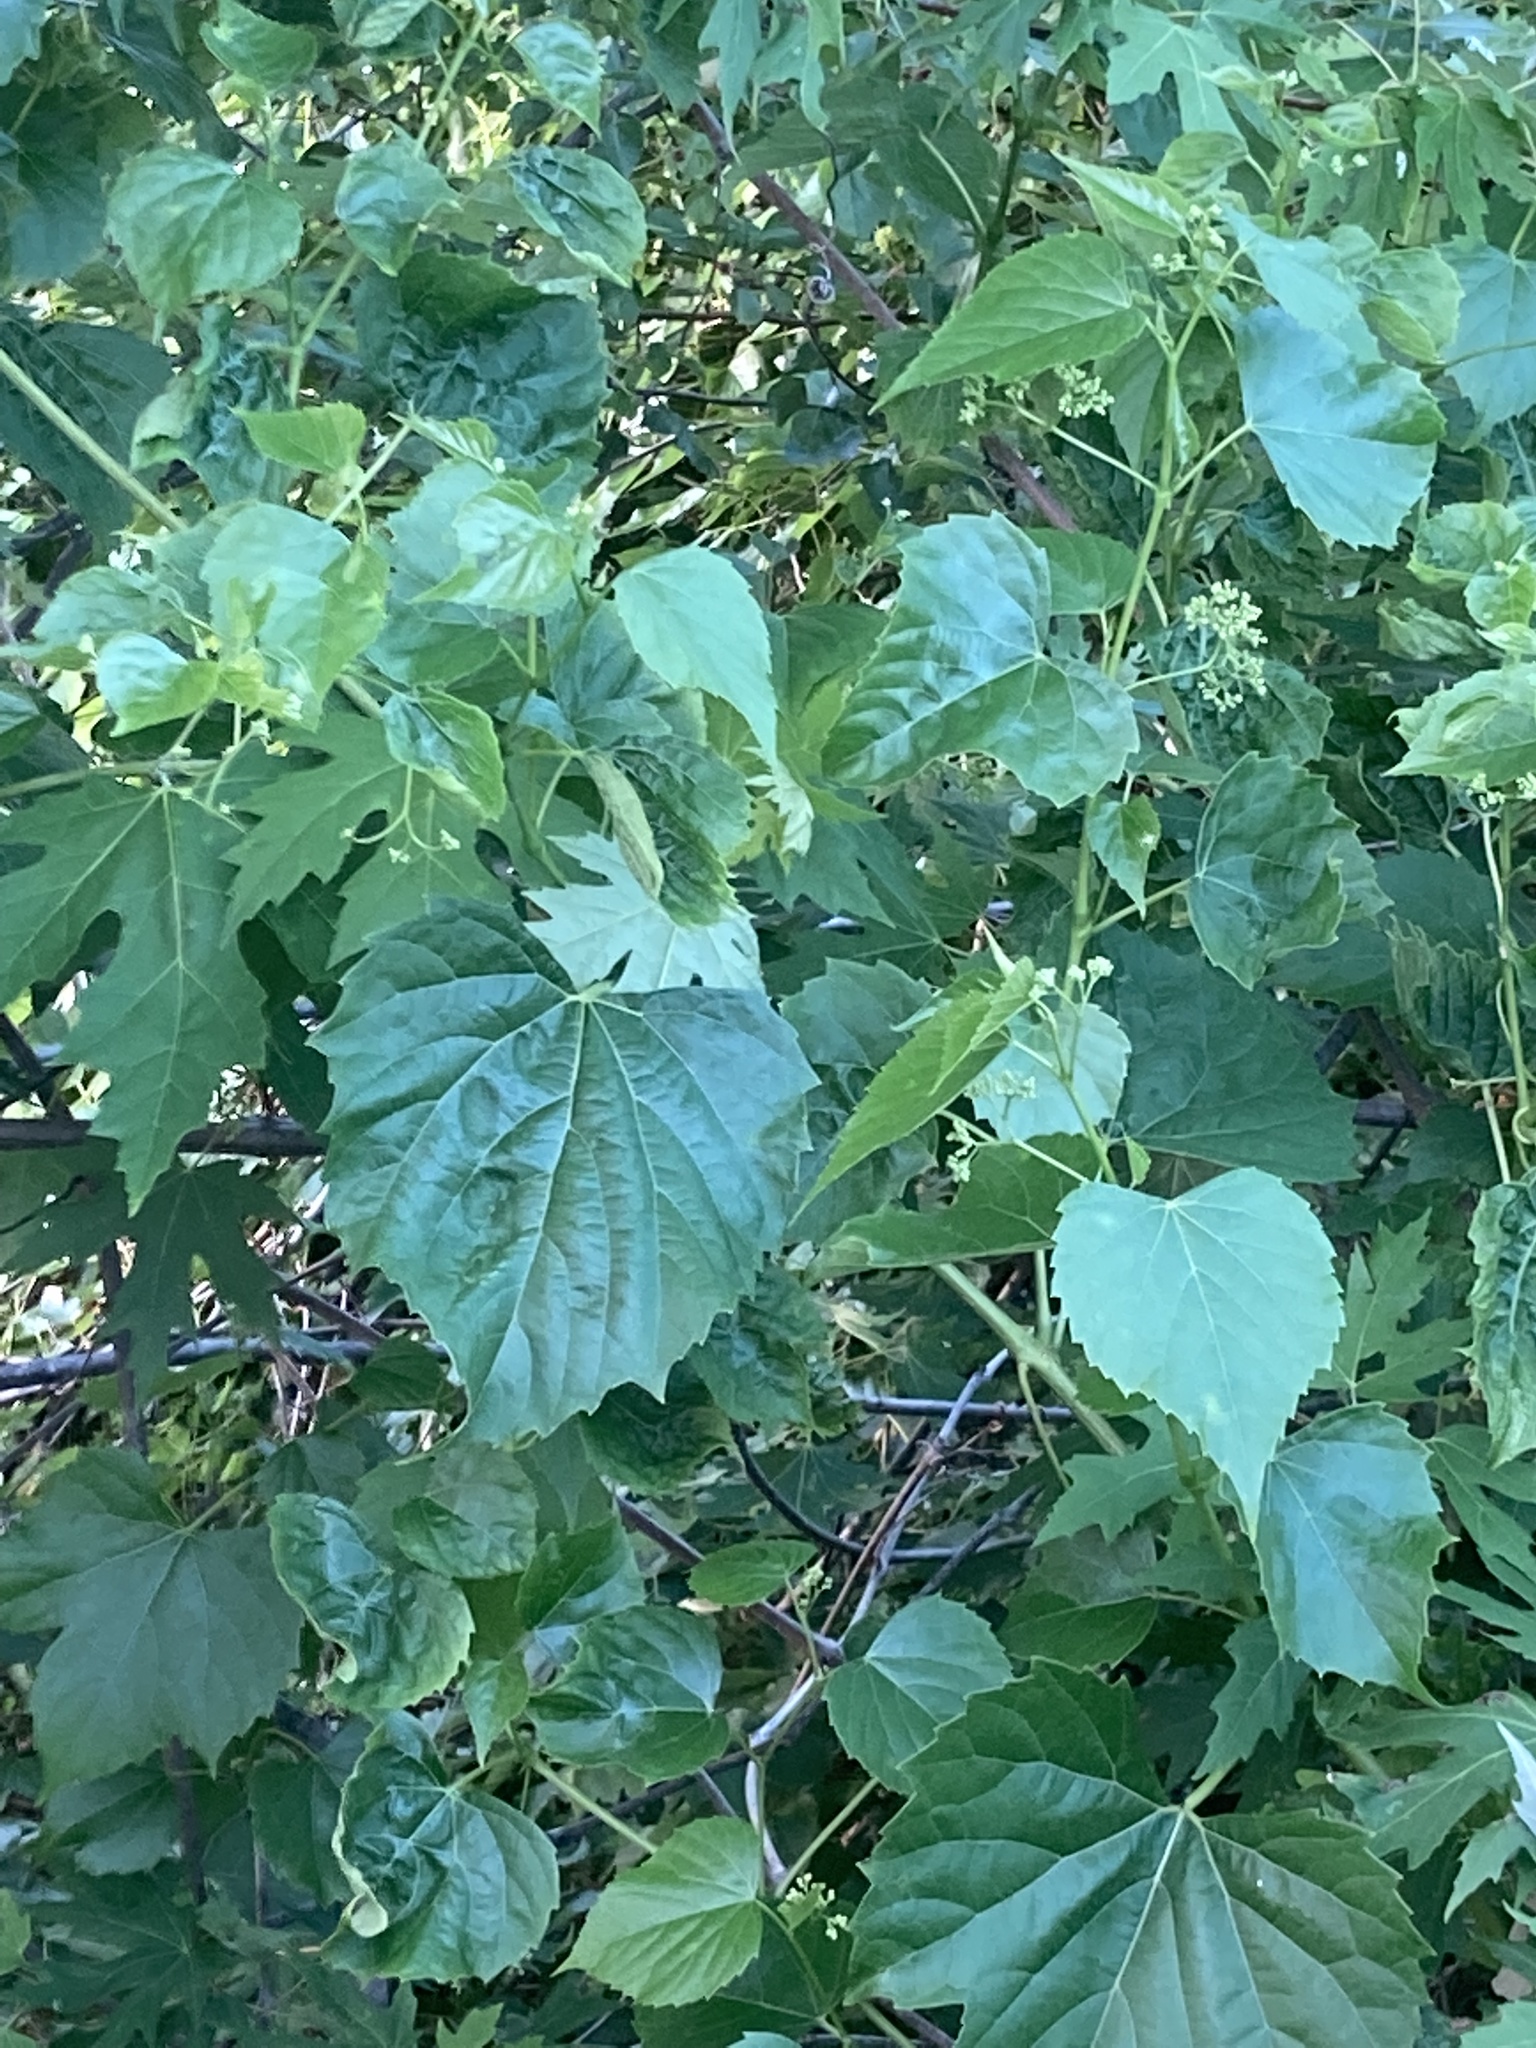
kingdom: Plantae
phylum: Tracheophyta
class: Magnoliopsida
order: Vitales
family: Vitaceae
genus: Ampelopsis
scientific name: Ampelopsis cordata
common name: Heart-leaf ampelopsis
